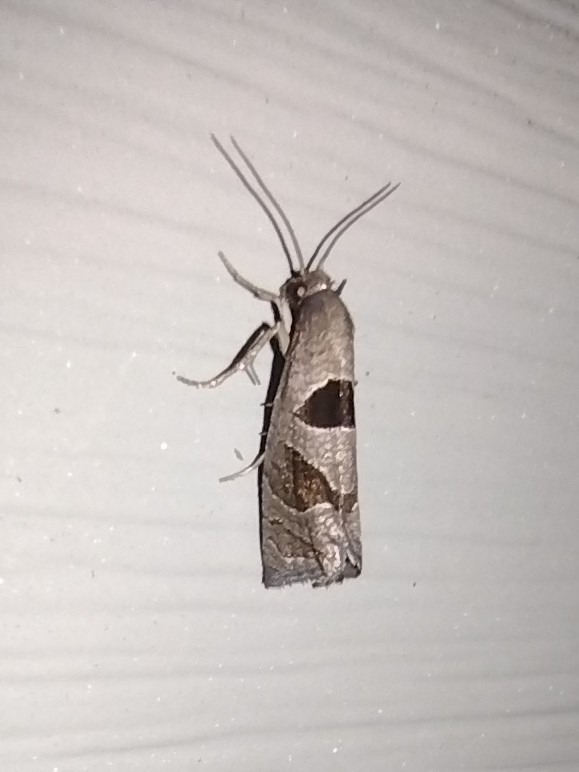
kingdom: Animalia
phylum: Arthropoda
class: Insecta
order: Lepidoptera
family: Tortricidae
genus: Pelochrista
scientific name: Pelochrista dorsisignatana
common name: Triangle-backed pelochrista moth
